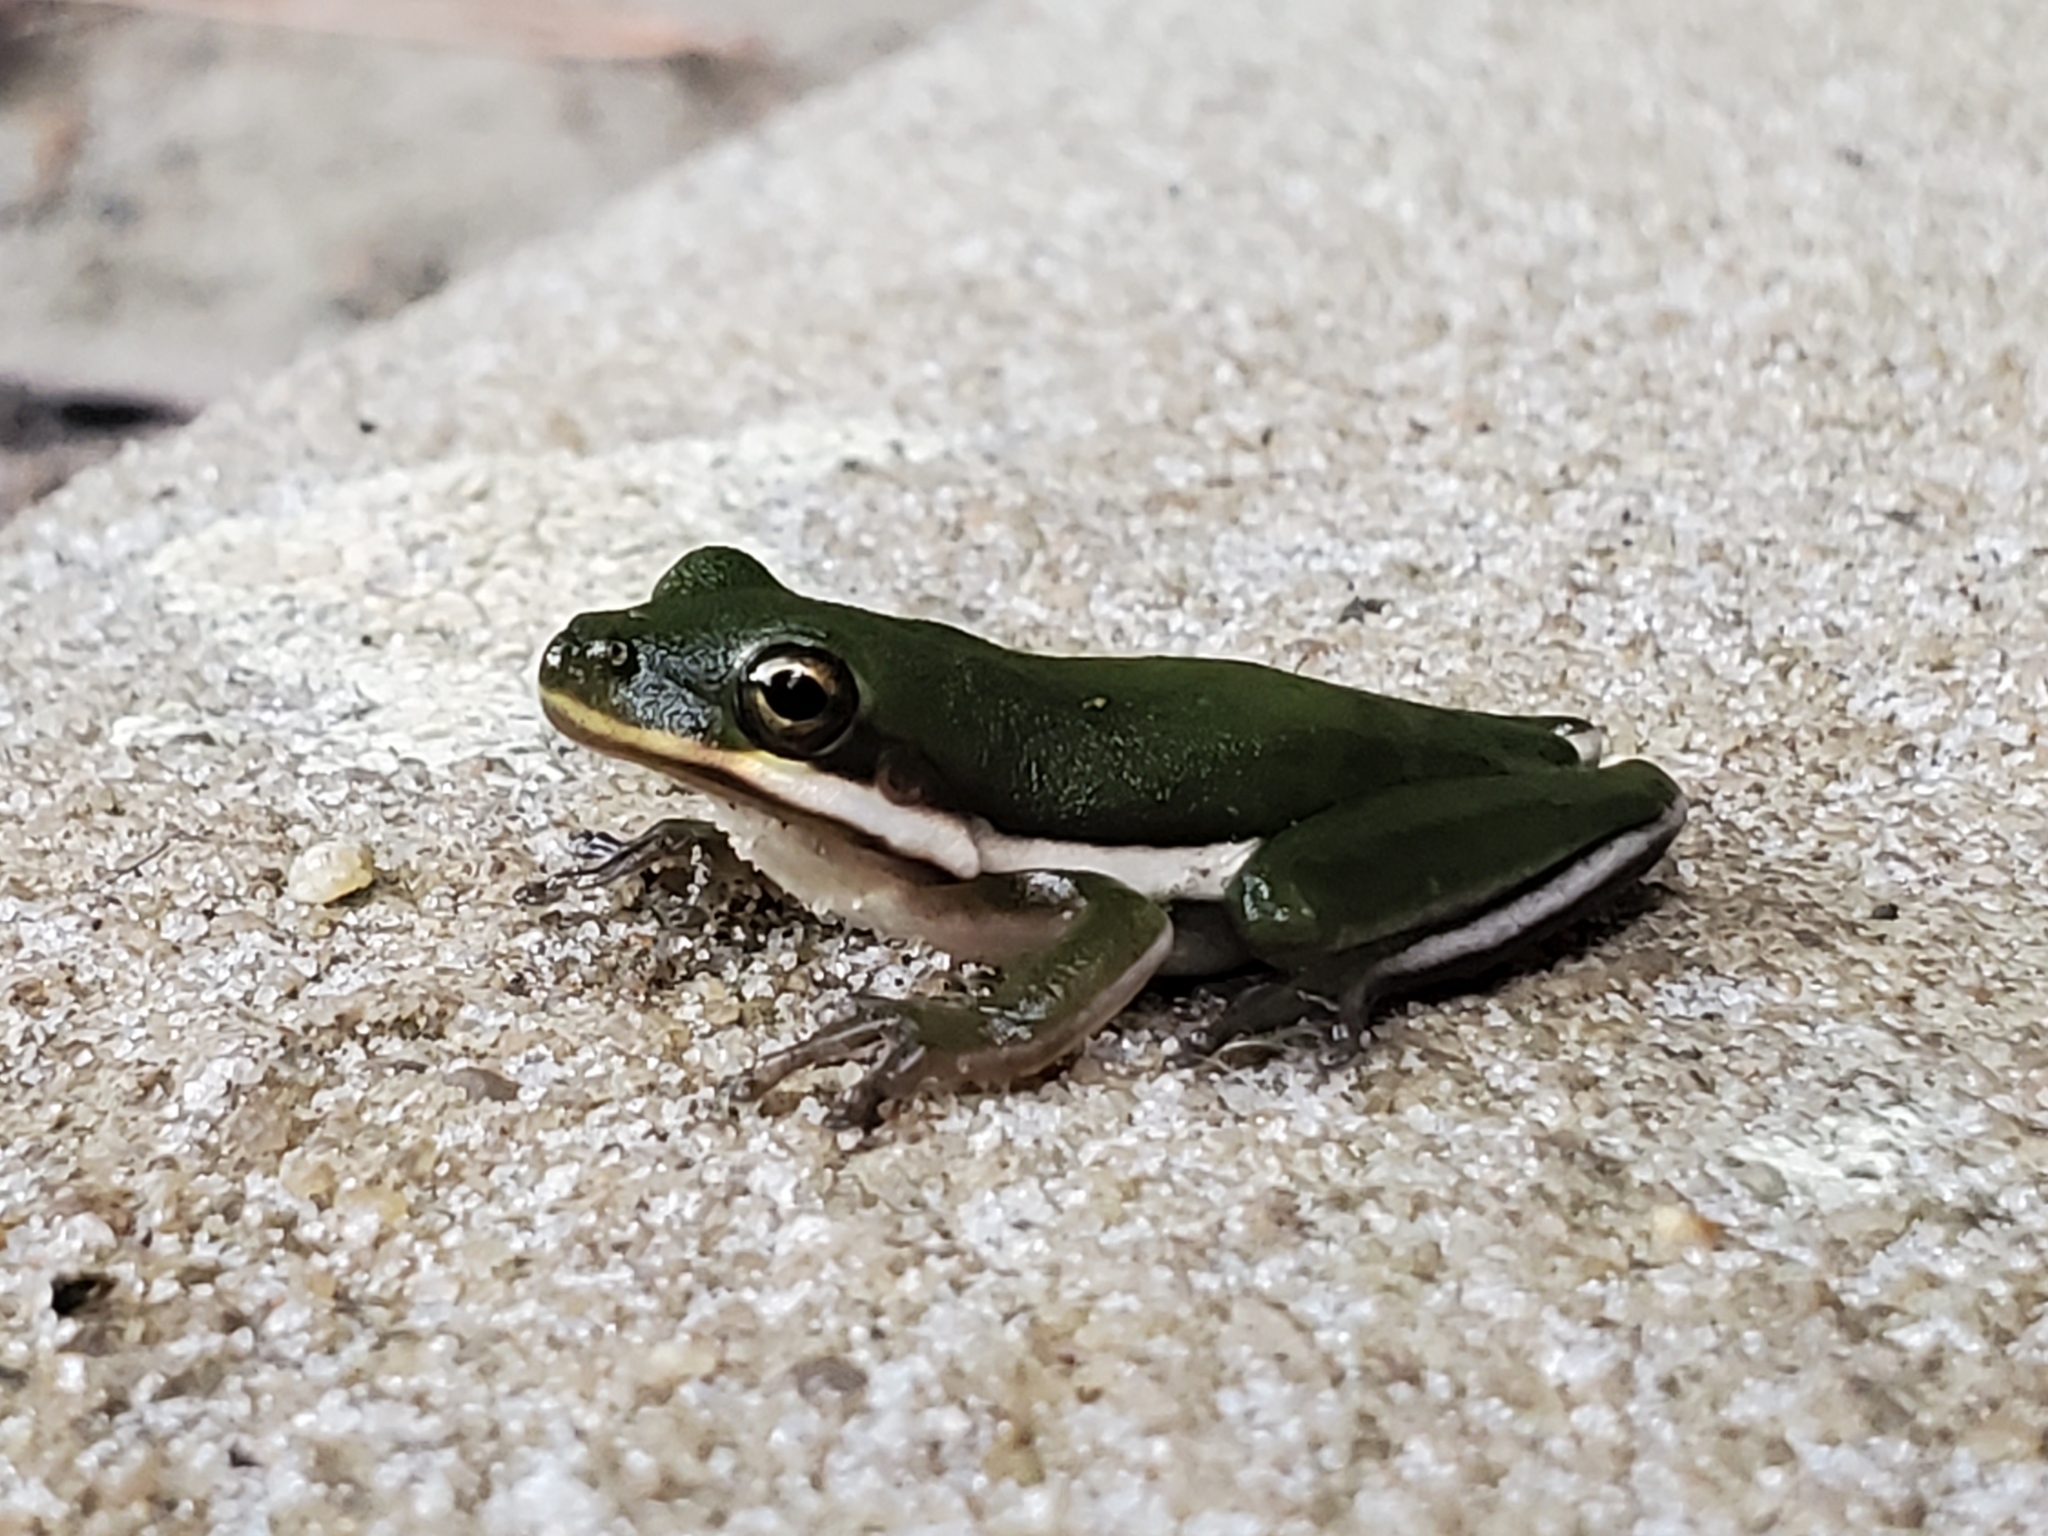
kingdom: Animalia
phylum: Chordata
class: Amphibia
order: Anura
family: Hylidae
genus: Dryophytes
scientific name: Dryophytes cinereus
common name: Green treefrog
